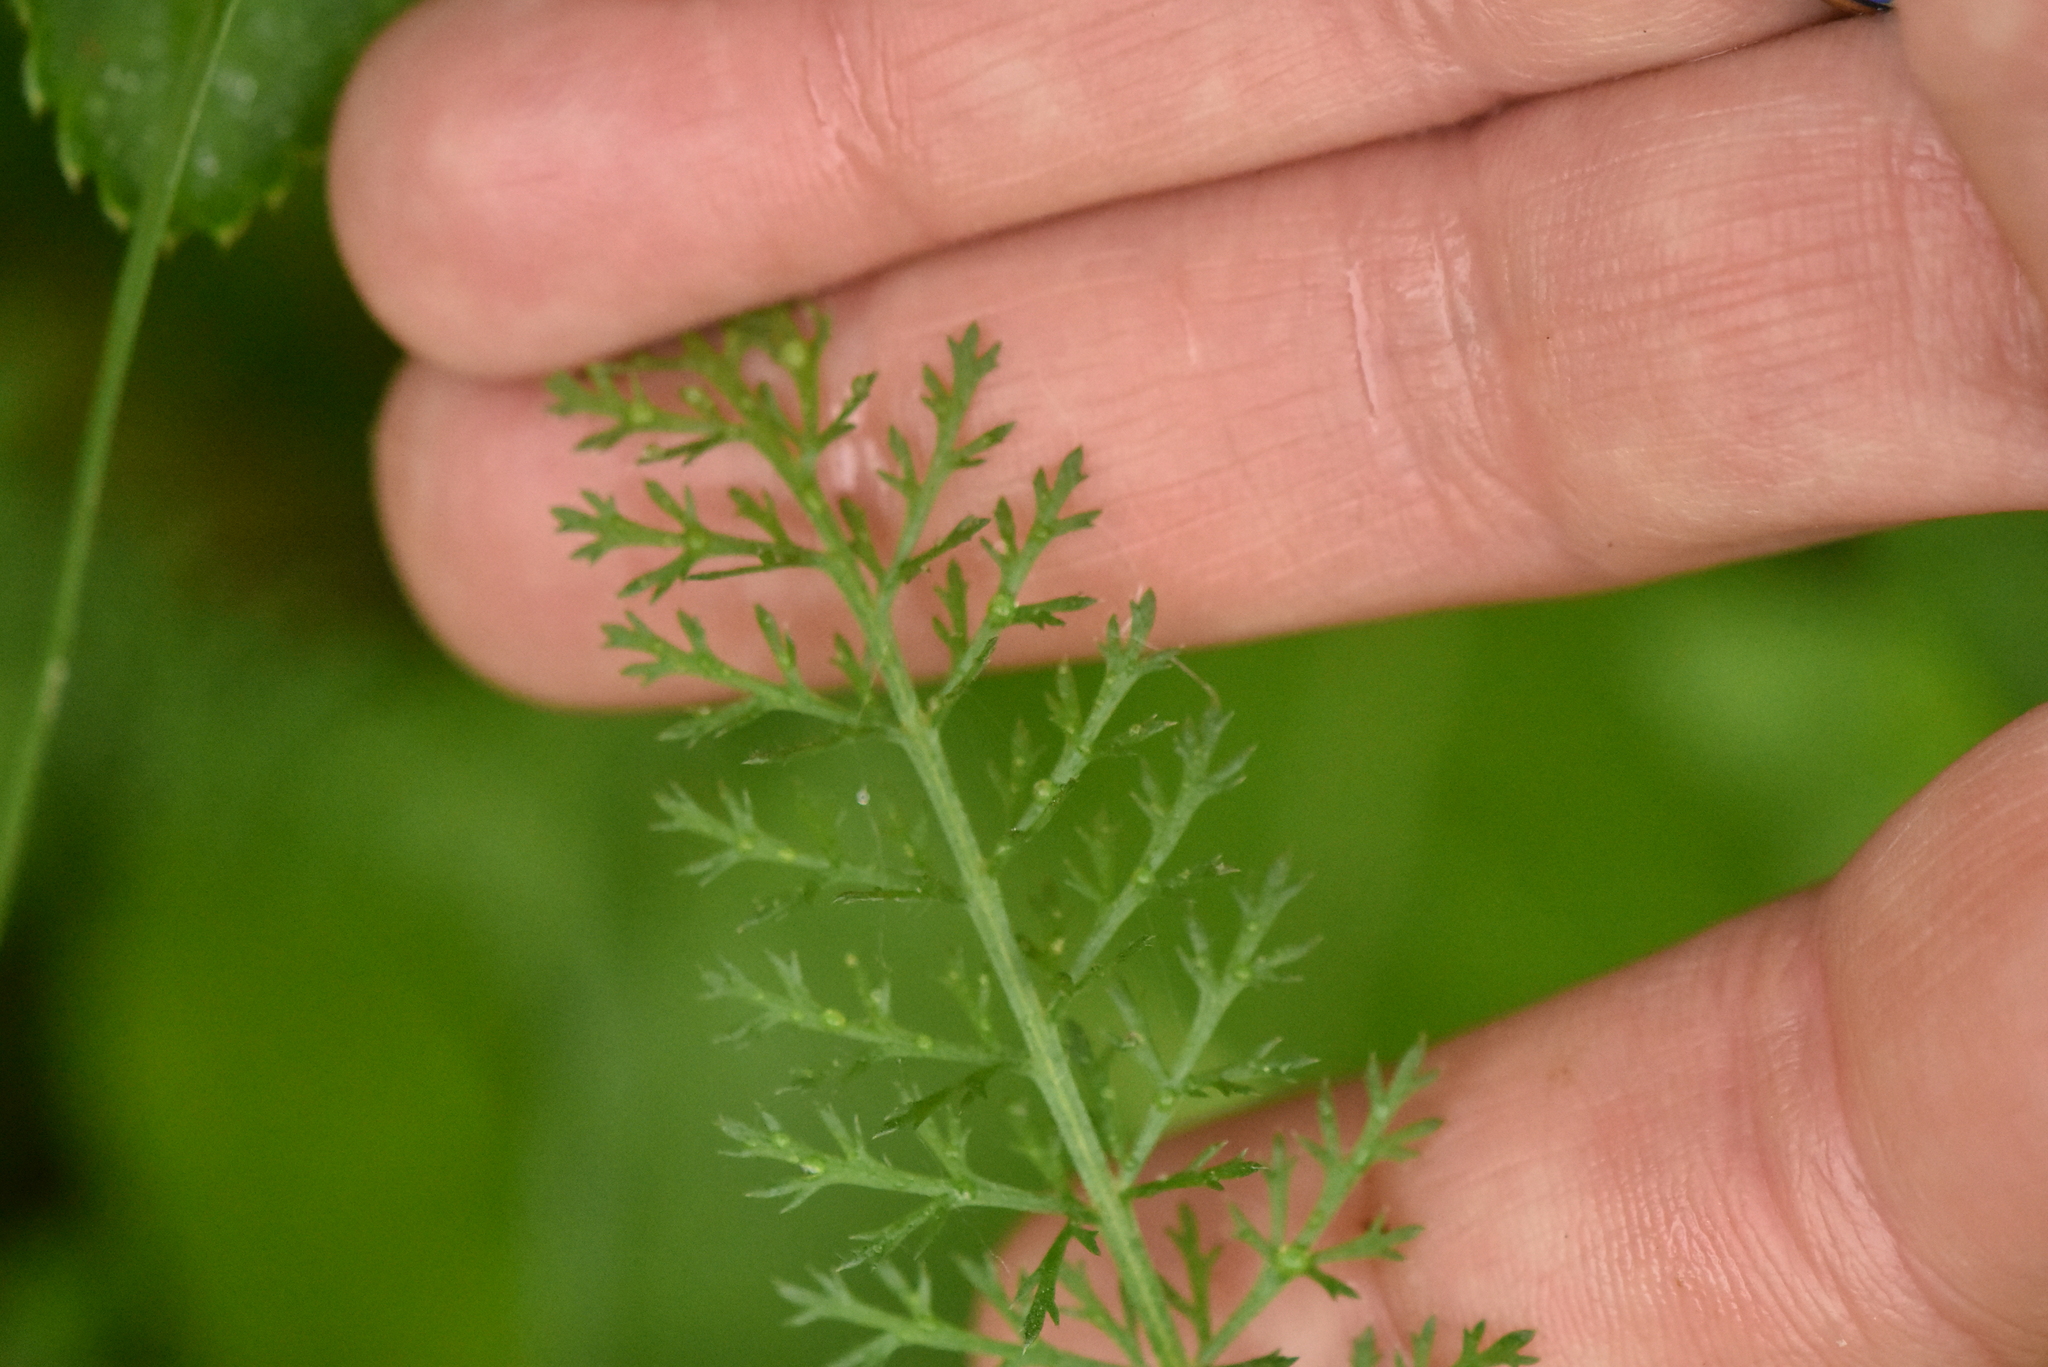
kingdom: Plantae
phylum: Tracheophyta
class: Magnoliopsida
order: Asterales
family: Asteraceae
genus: Achillea
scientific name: Achillea millefolium
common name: Yarrow
